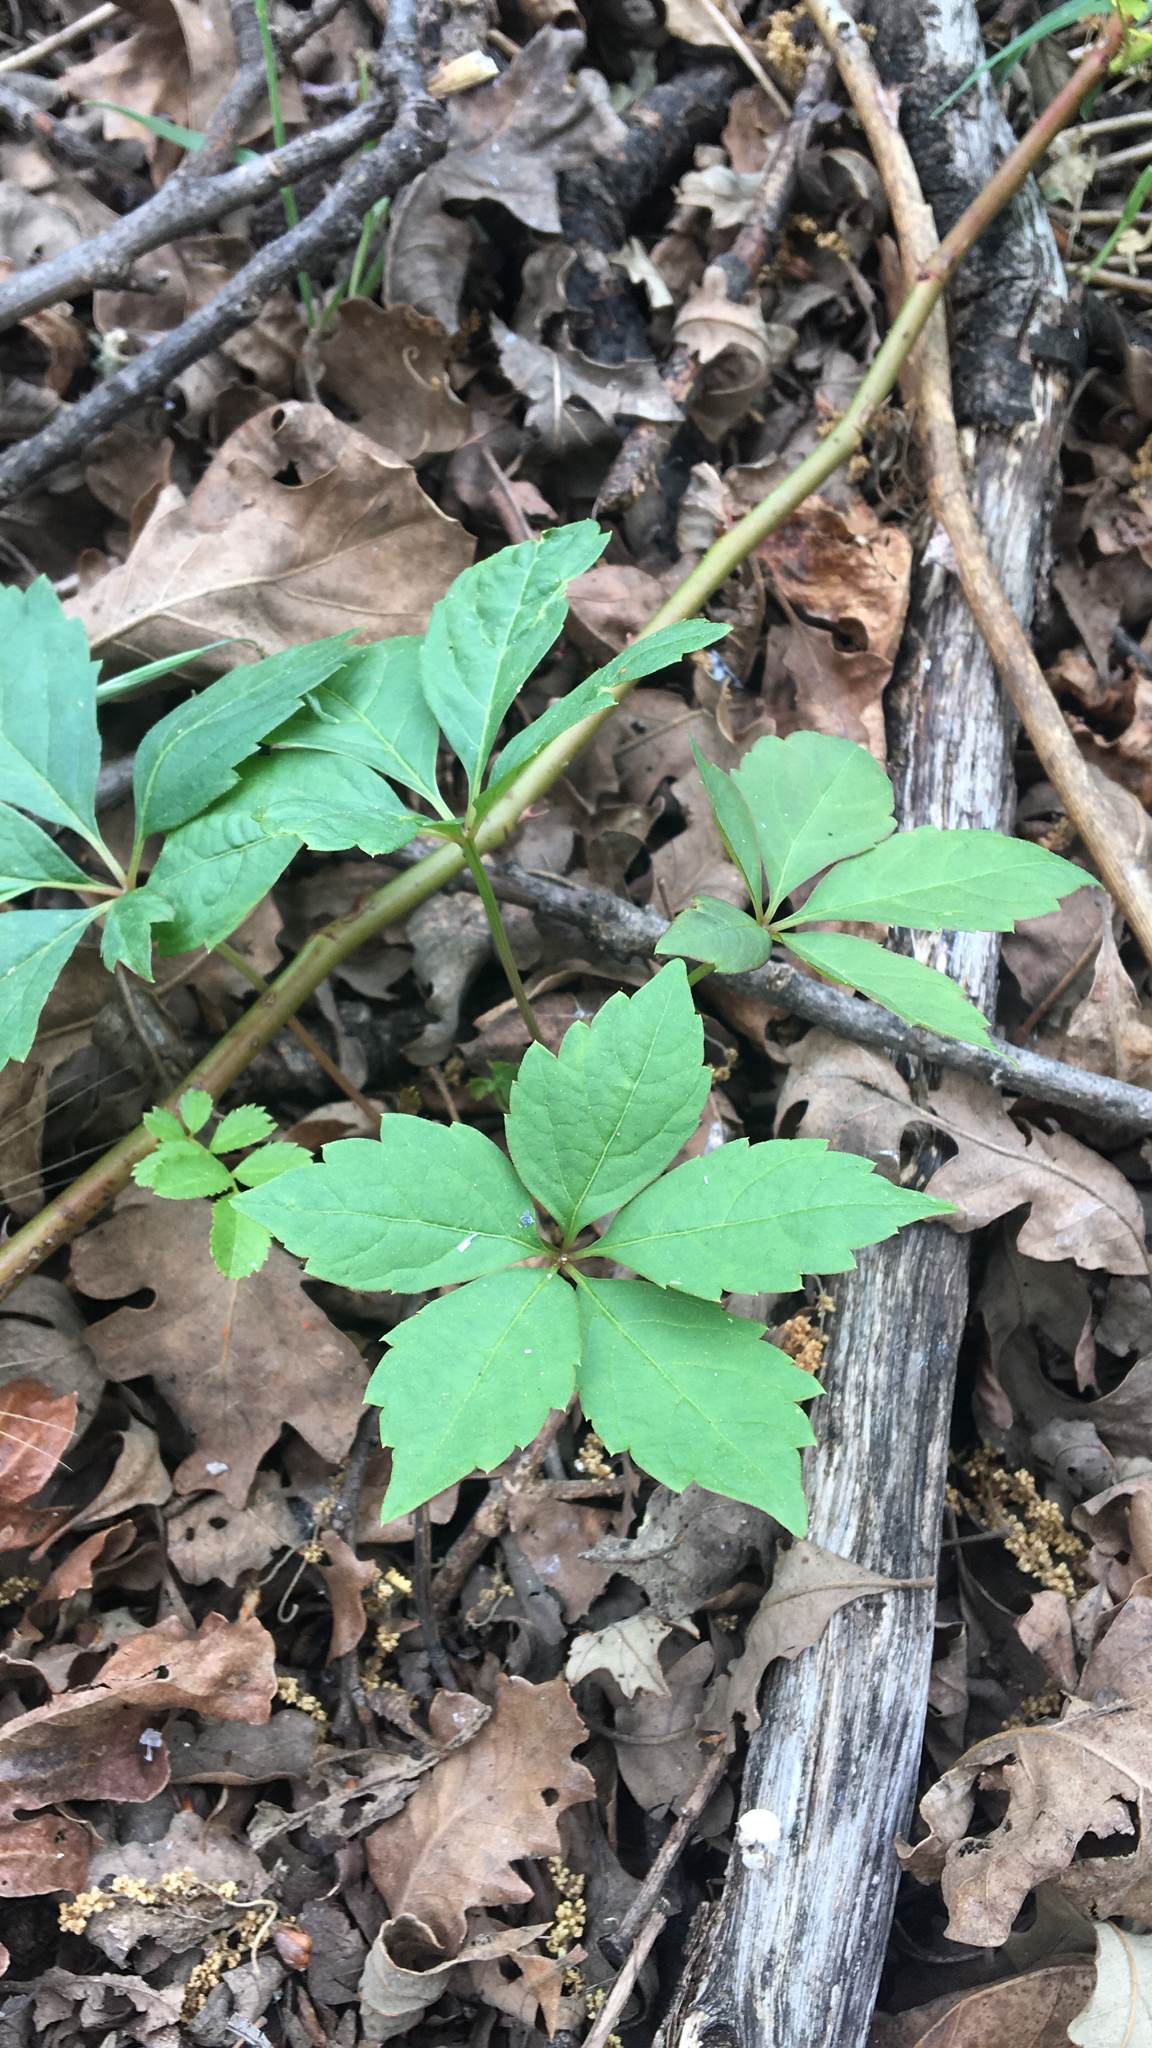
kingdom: Plantae
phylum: Tracheophyta
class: Magnoliopsida
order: Vitales
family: Vitaceae
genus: Parthenocissus
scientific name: Parthenocissus quinquefolia
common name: Virginia-creeper
